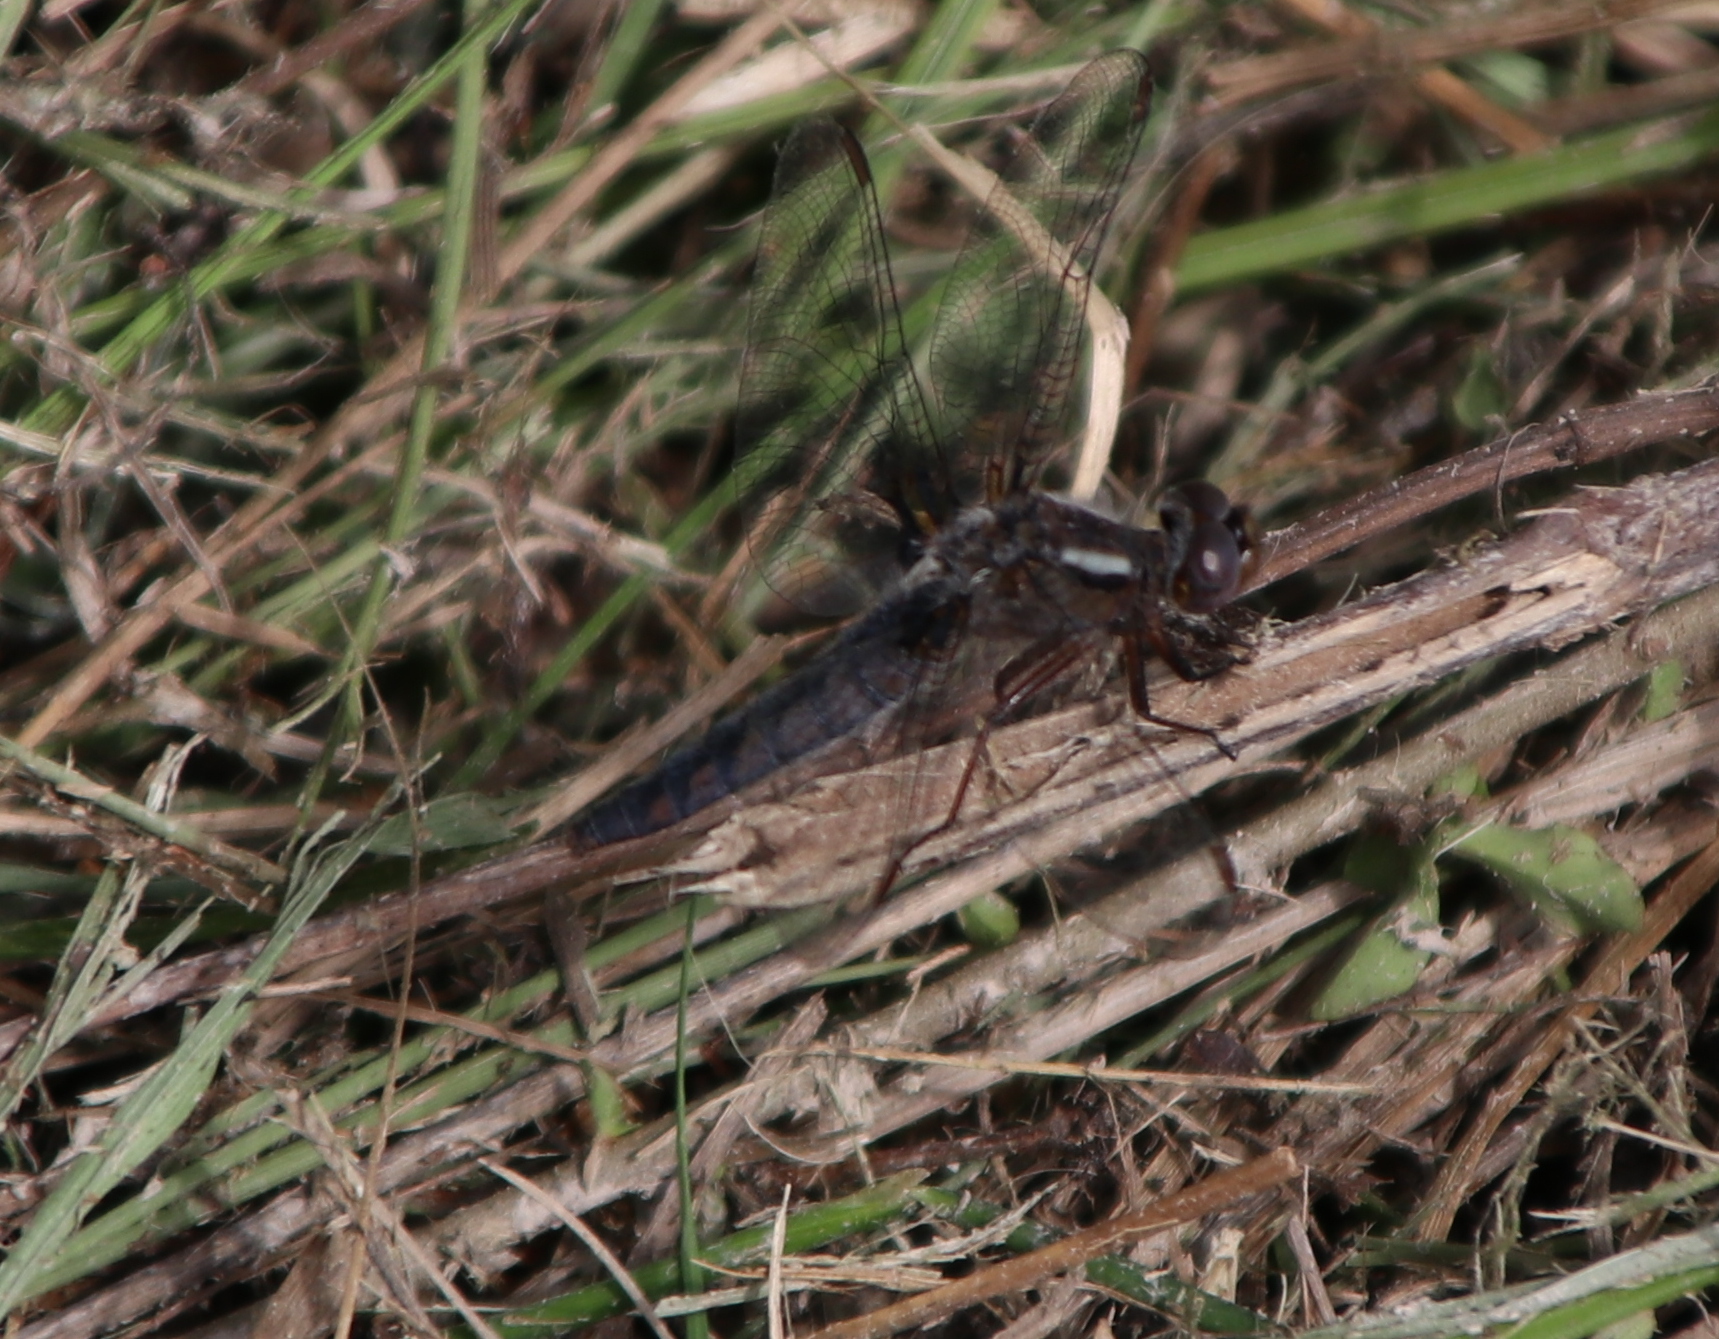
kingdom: Animalia
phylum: Arthropoda
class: Insecta
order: Odonata
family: Libellulidae
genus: Ladona
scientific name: Ladona deplanata
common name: Blue corporal
